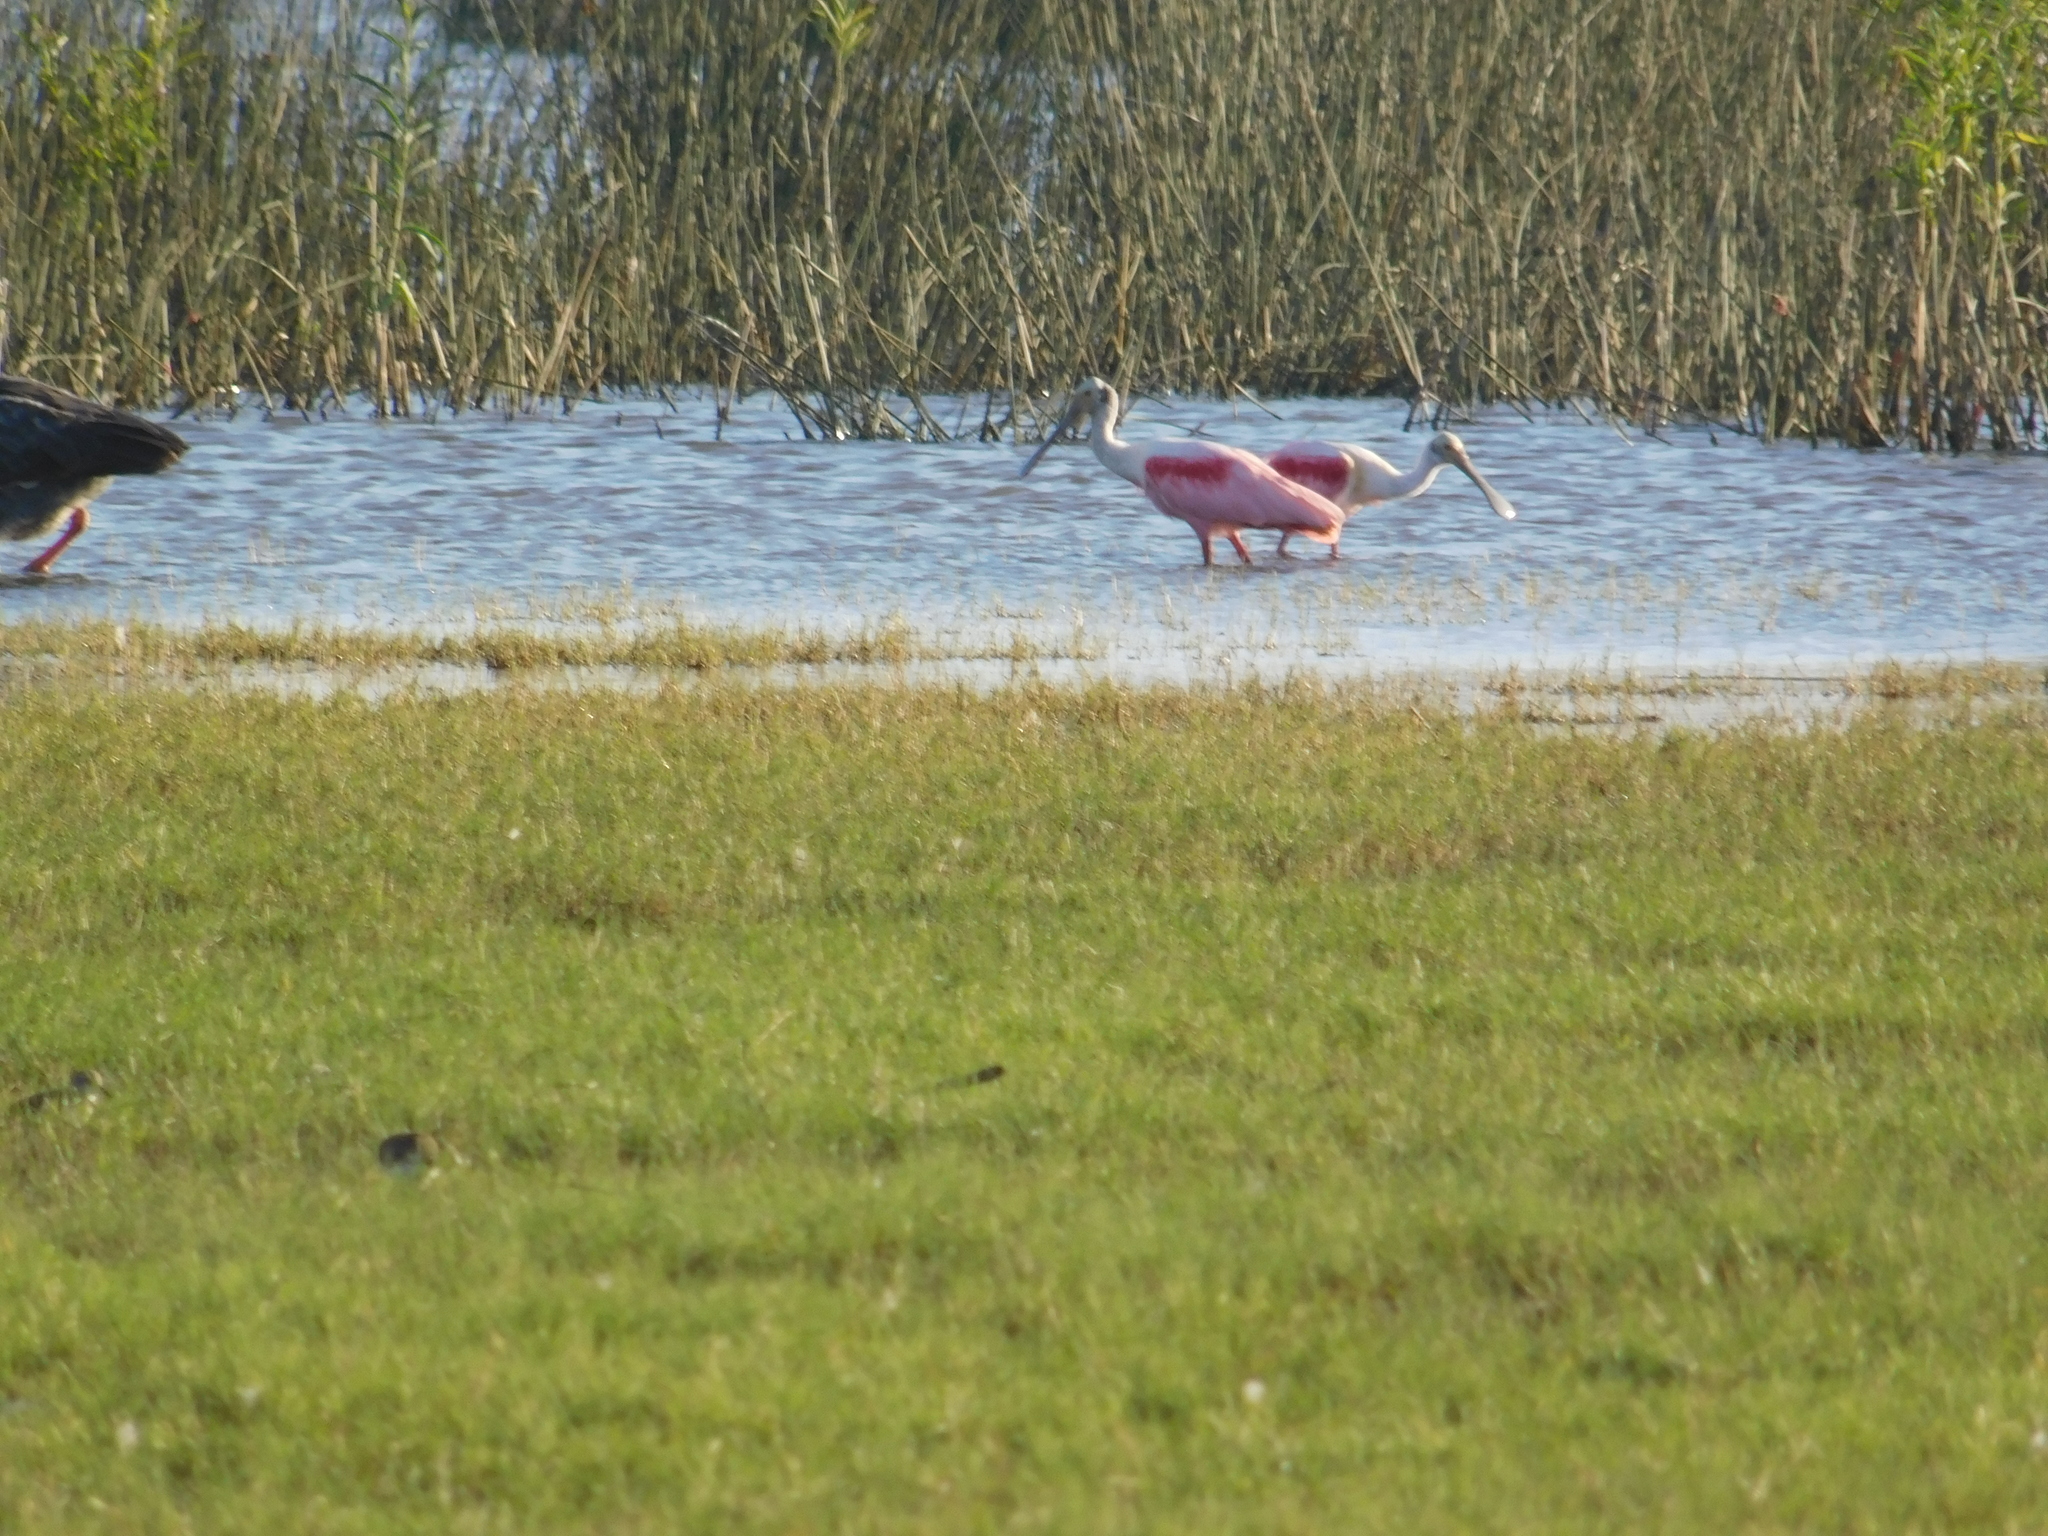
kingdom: Animalia
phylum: Chordata
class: Aves
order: Pelecaniformes
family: Threskiornithidae
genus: Platalea
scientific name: Platalea ajaja
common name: Roseate spoonbill
